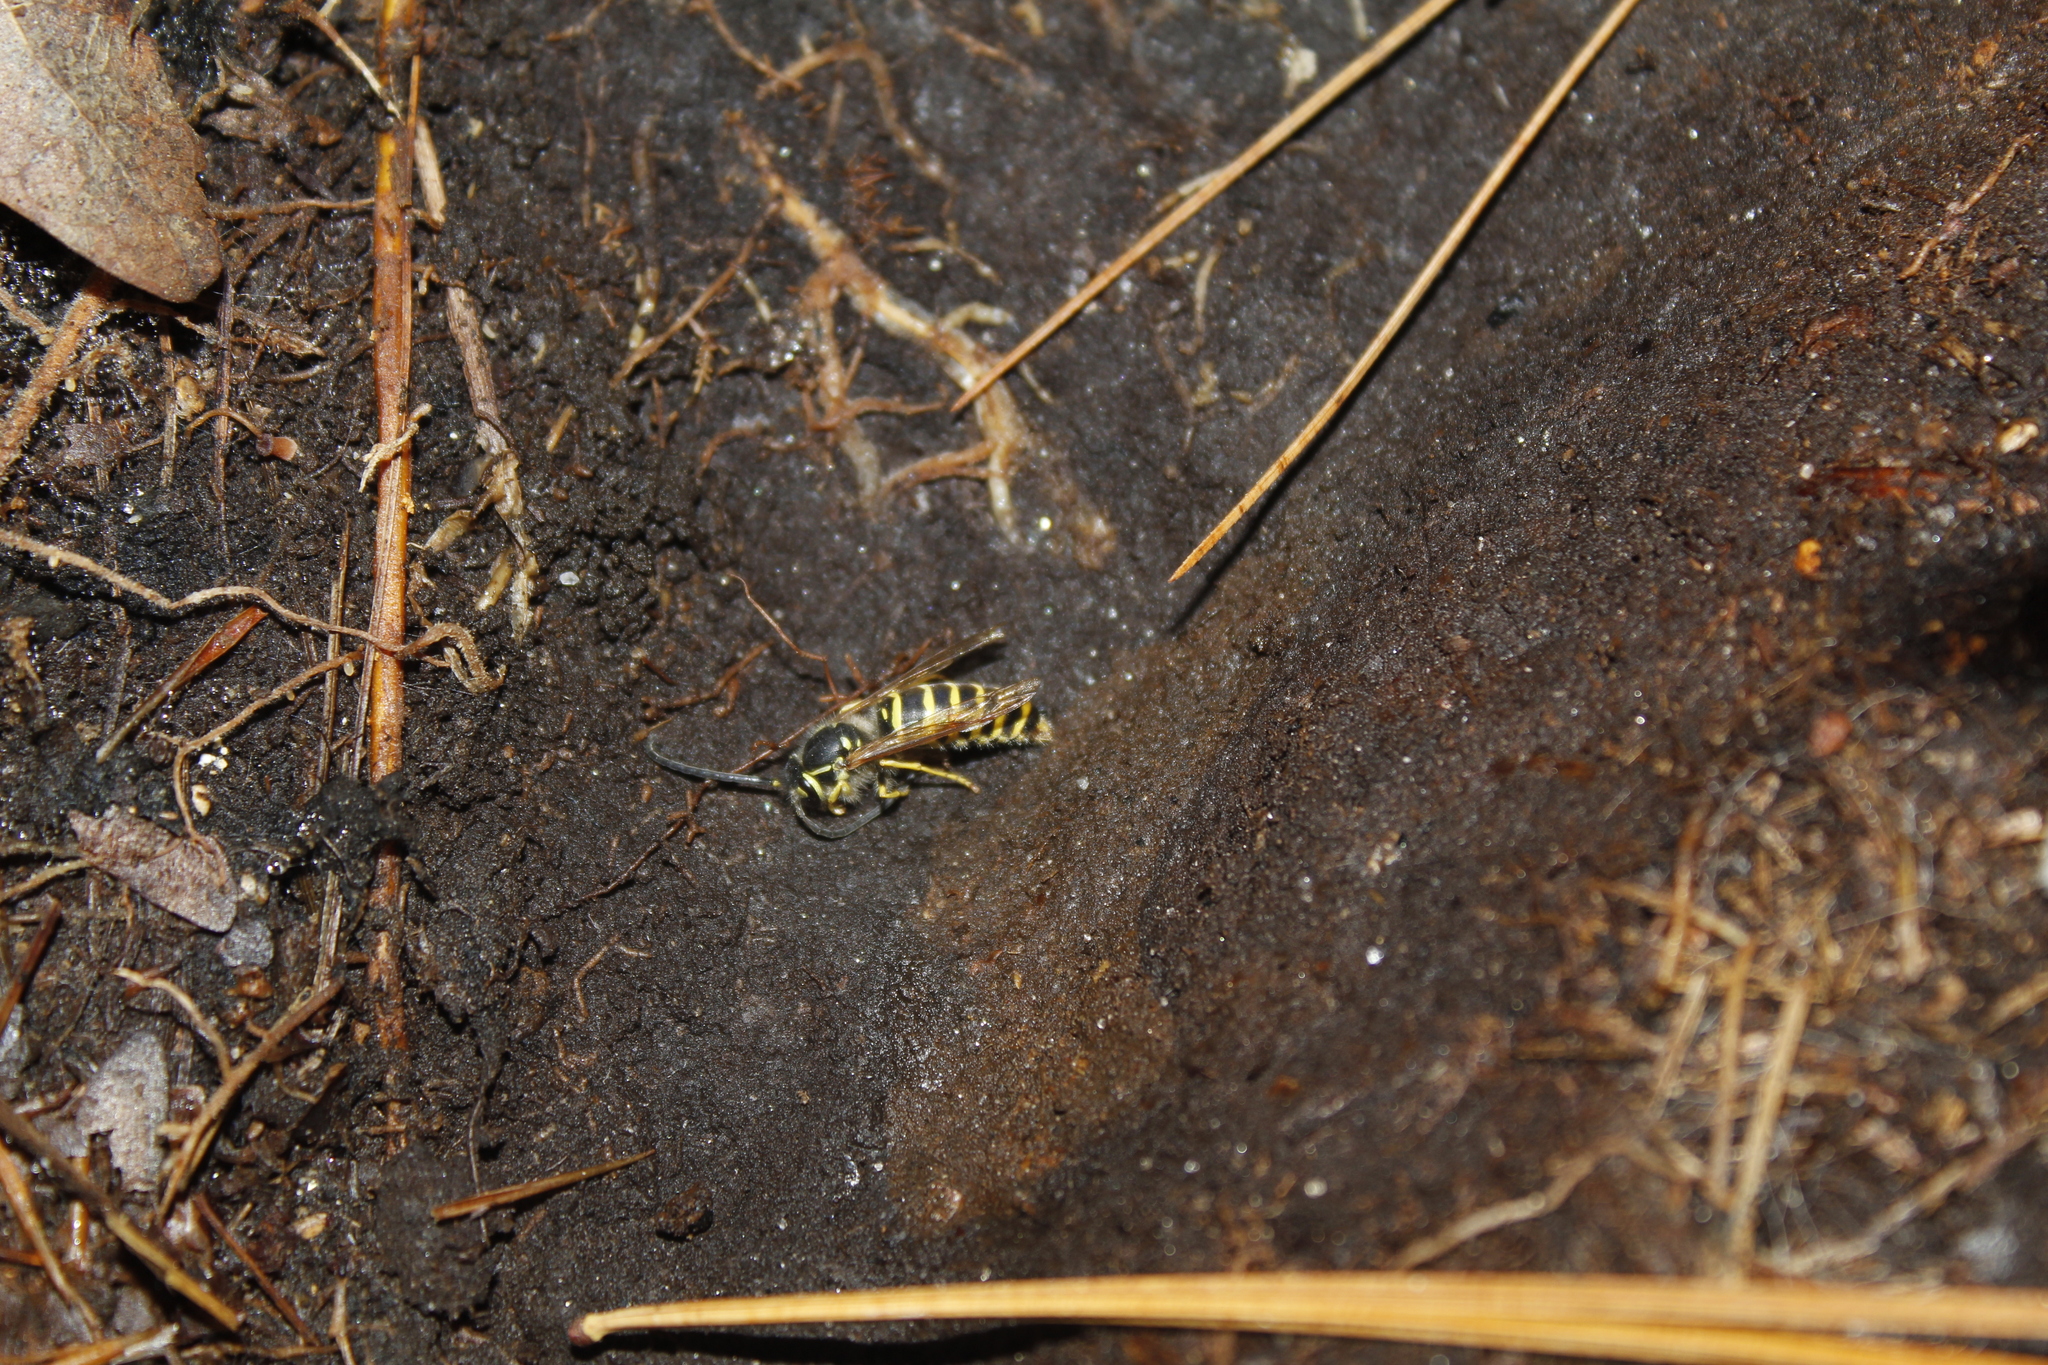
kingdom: Animalia
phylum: Arthropoda
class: Insecta
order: Hymenoptera
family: Vespidae
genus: Vespula
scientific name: Vespula maculifrons
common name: Eastern yellowjacket
